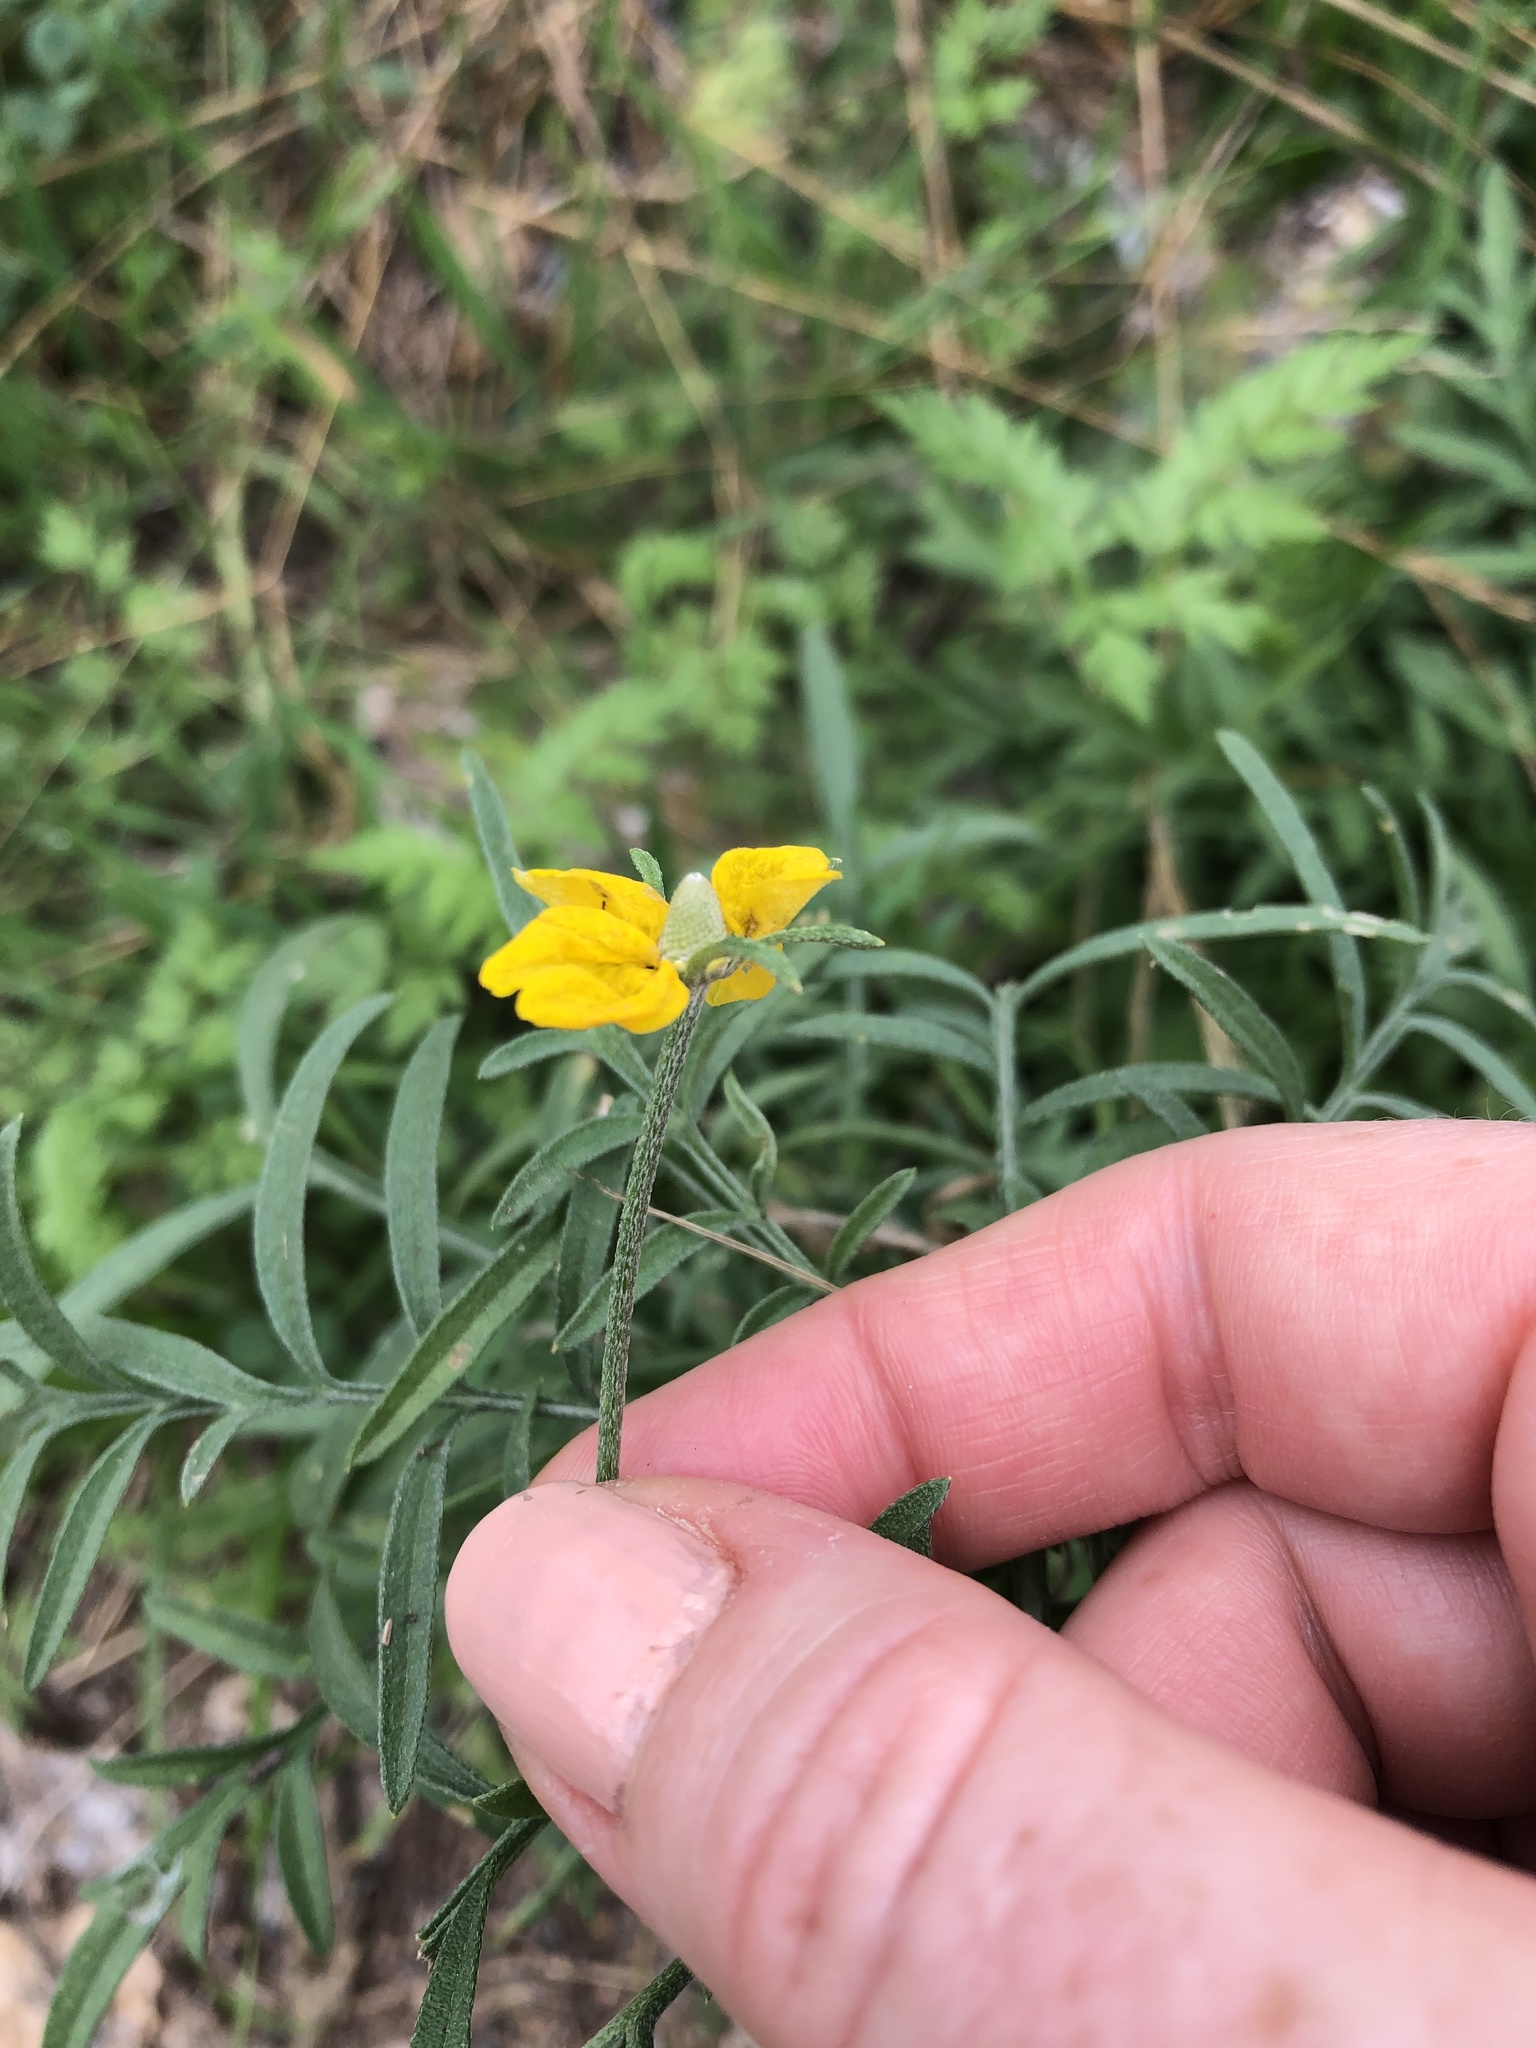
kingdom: Plantae
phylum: Tracheophyta
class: Magnoliopsida
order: Asterales
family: Asteraceae
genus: Ratibida
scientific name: Ratibida columnifera
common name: Prairie coneflower
